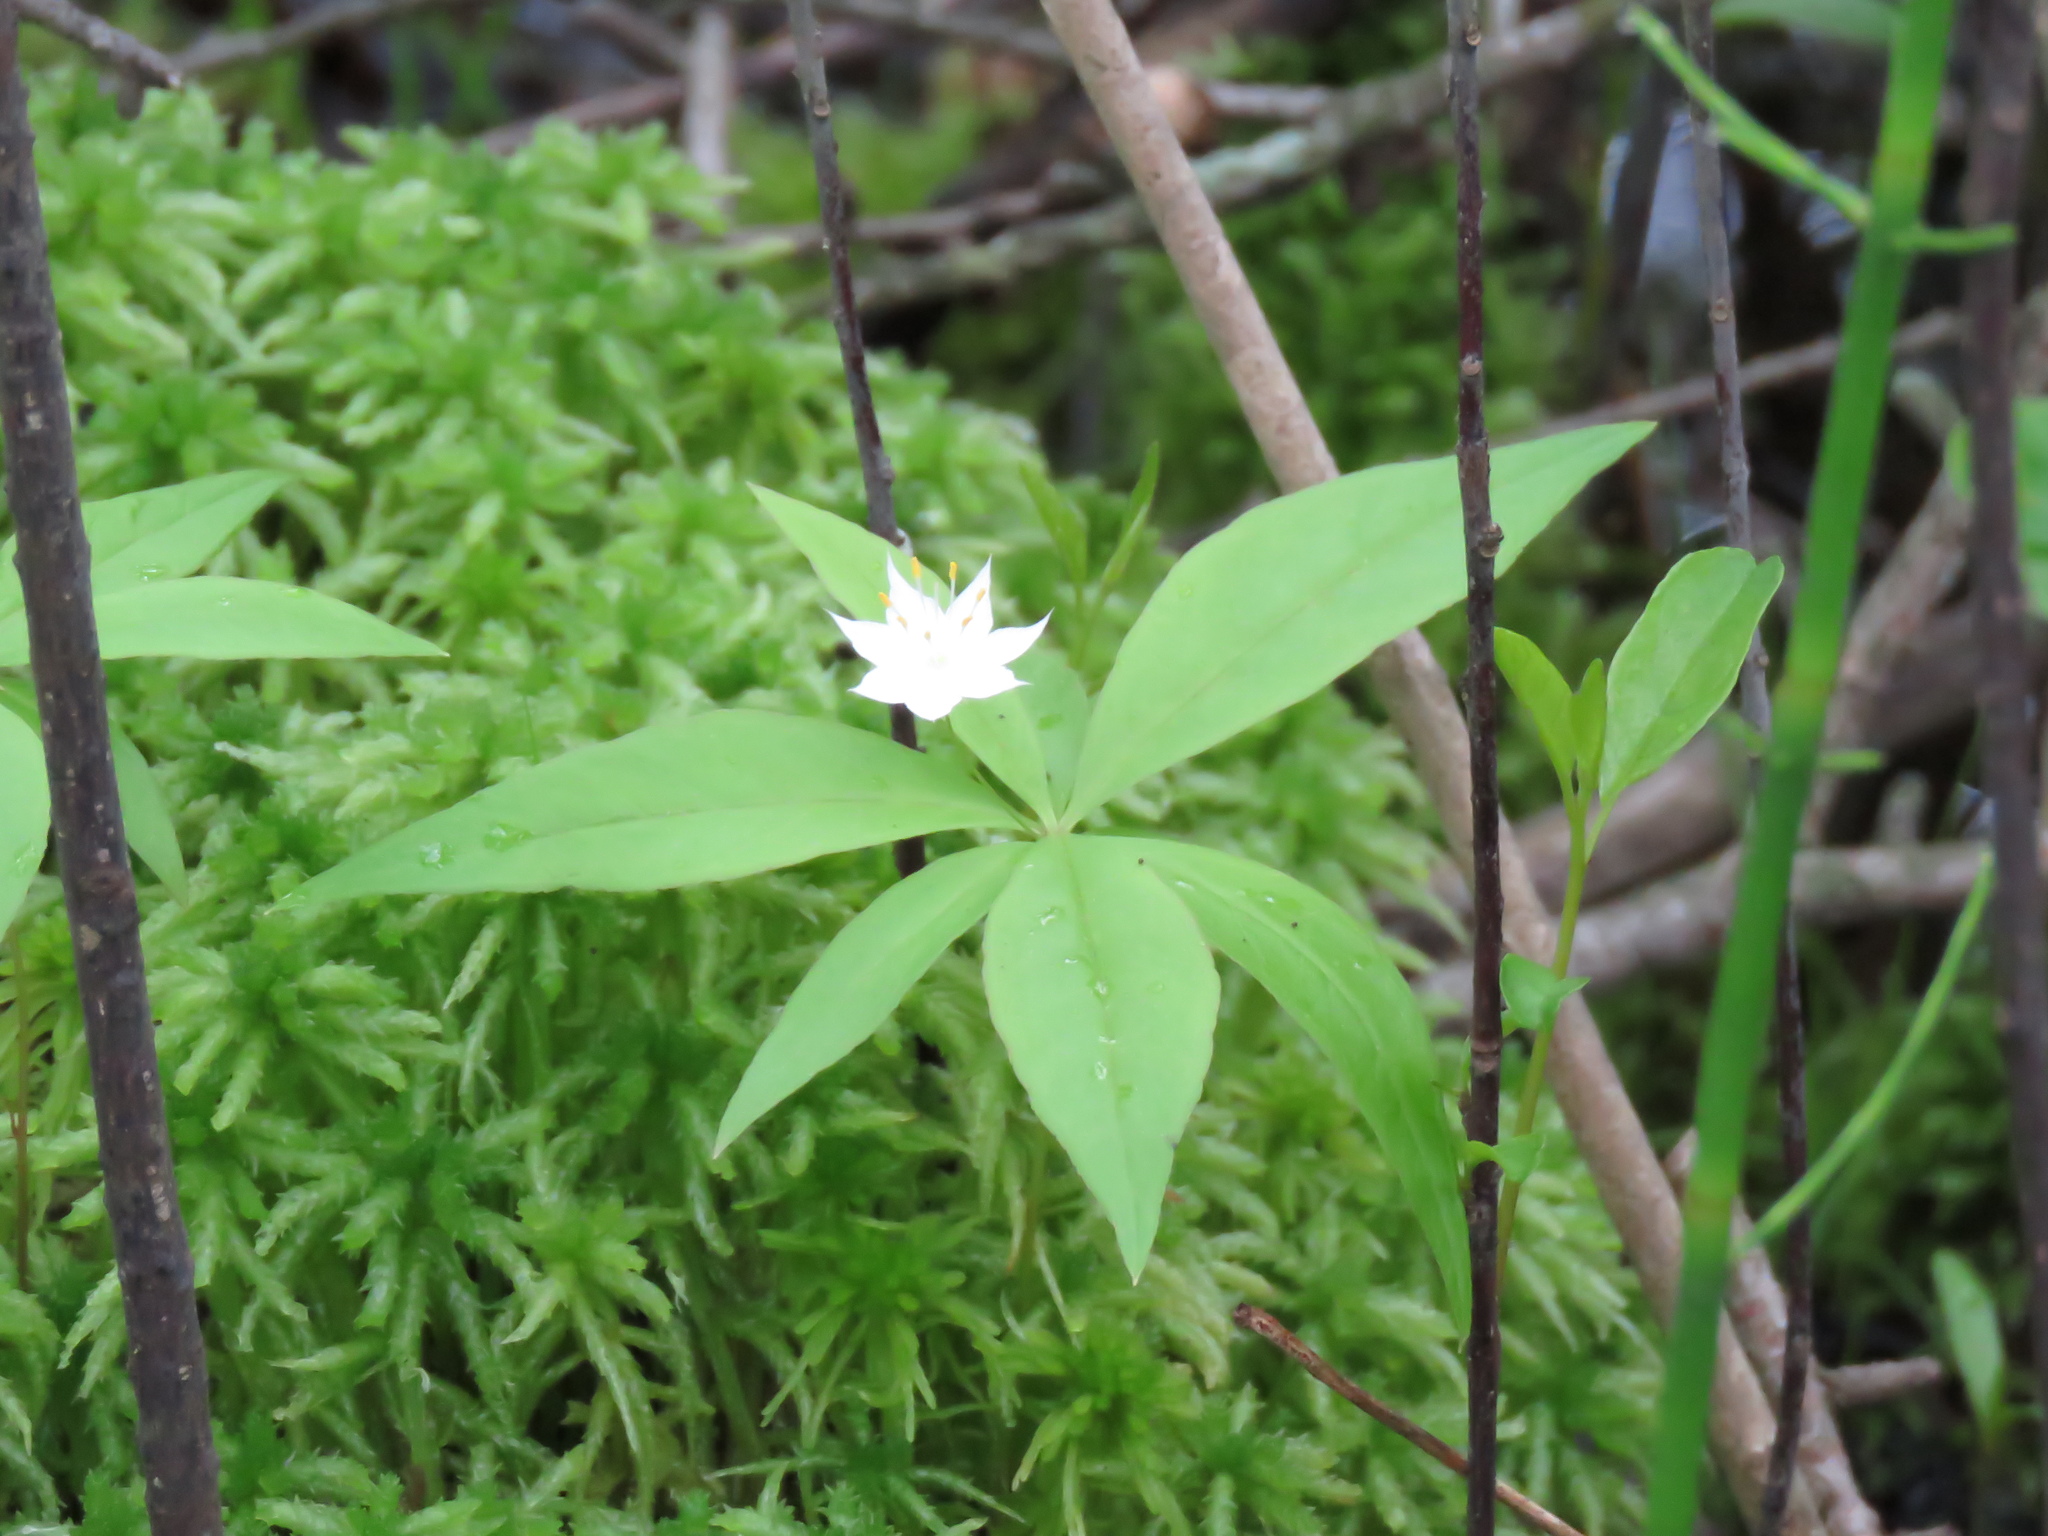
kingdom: Plantae
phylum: Tracheophyta
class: Magnoliopsida
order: Ericales
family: Primulaceae
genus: Lysimachia
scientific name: Lysimachia borealis
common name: American starflower
